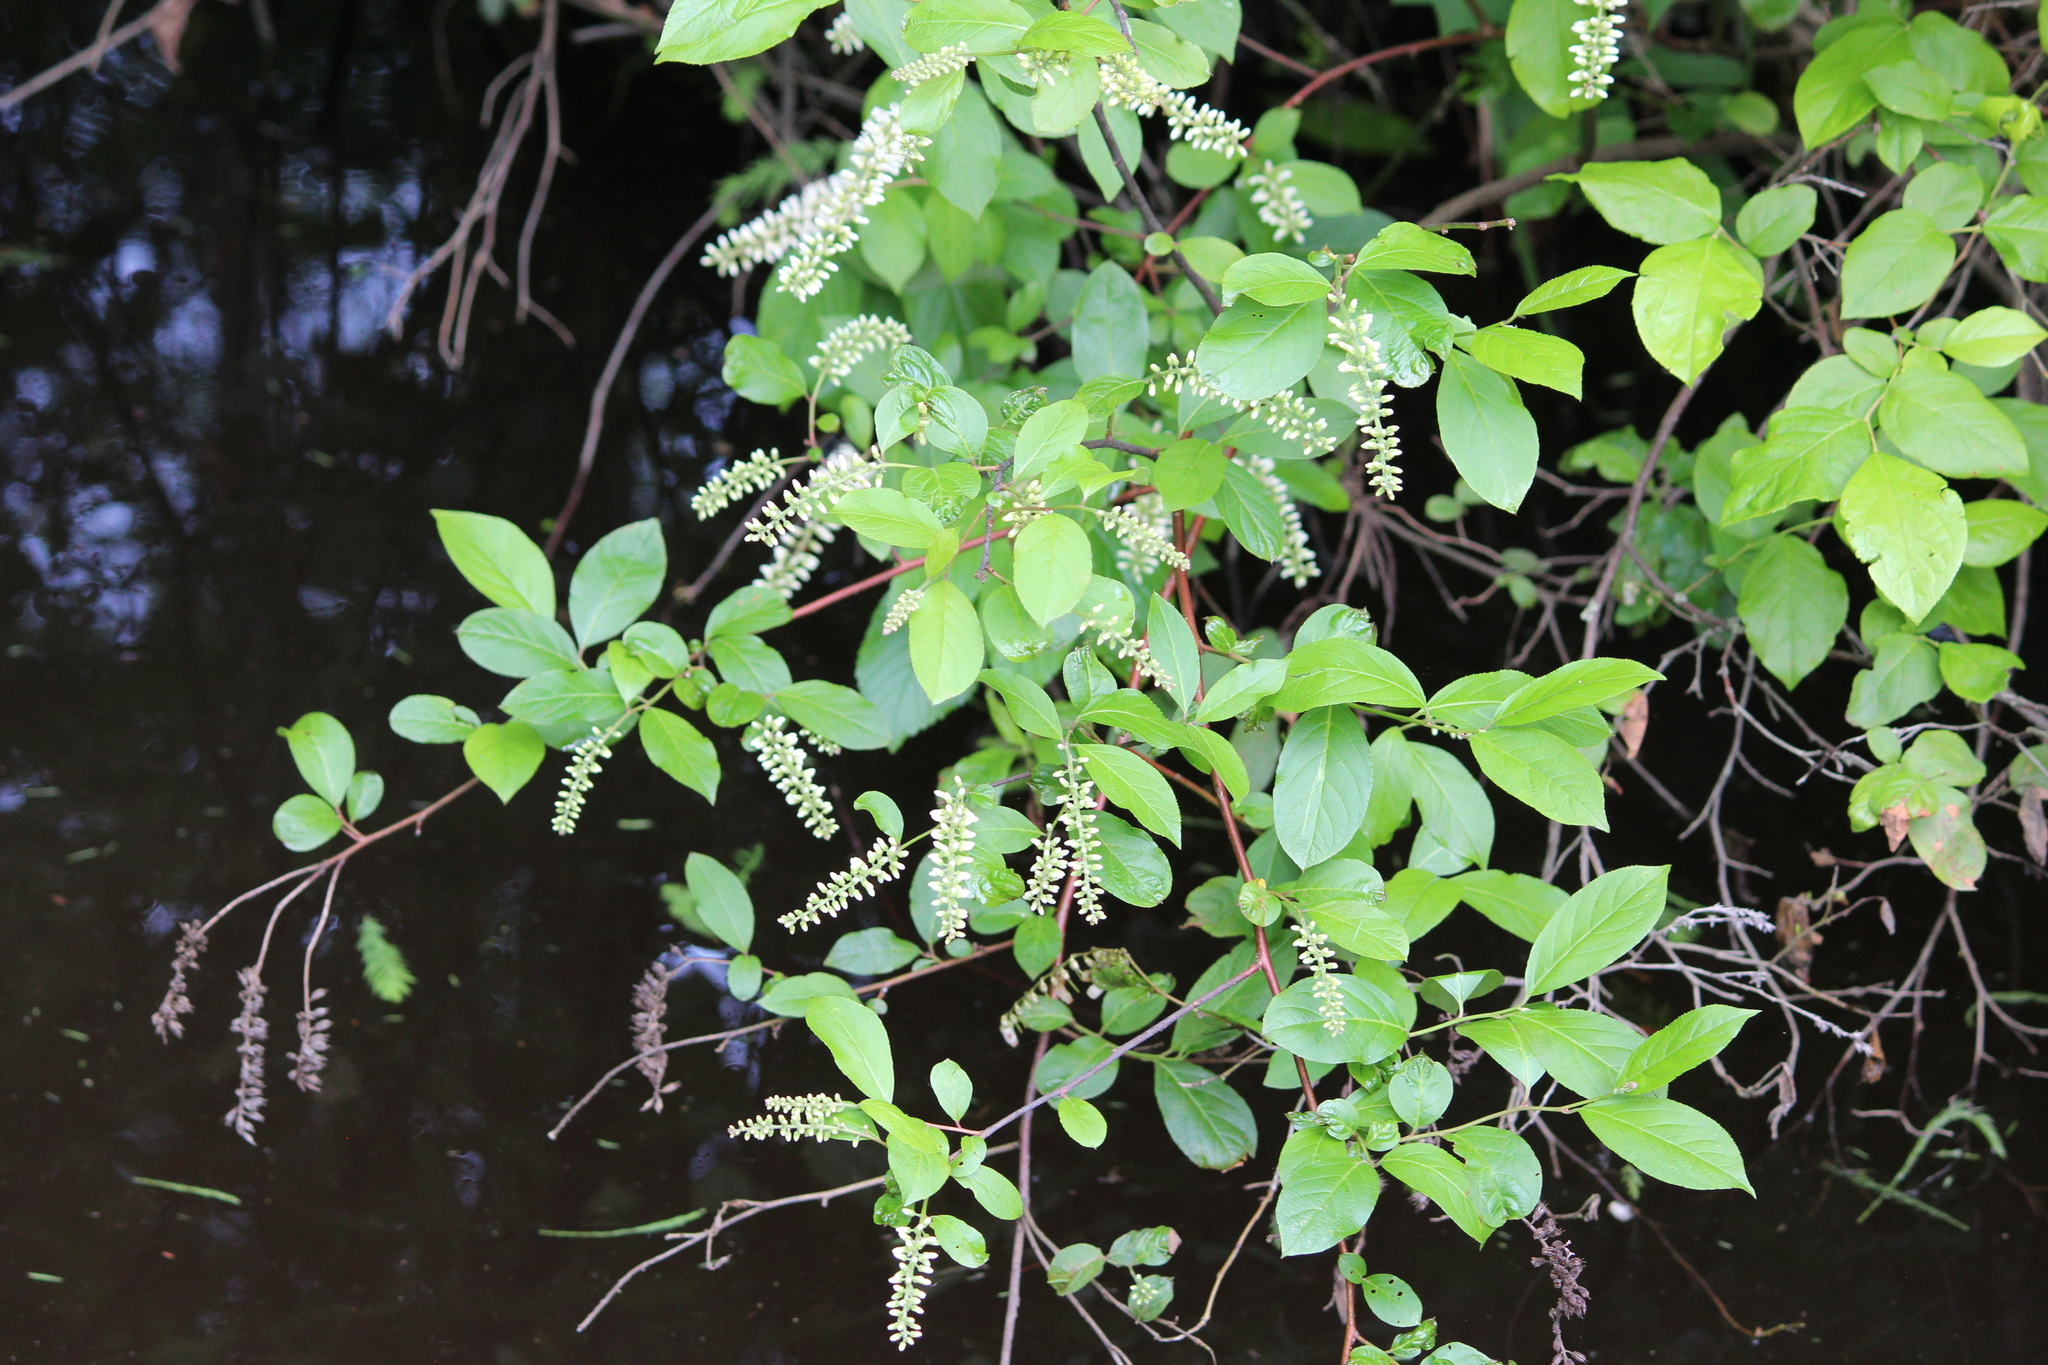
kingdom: Plantae
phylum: Tracheophyta
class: Magnoliopsida
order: Saxifragales
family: Iteaceae
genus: Itea
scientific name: Itea virginica
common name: Sweetspire
